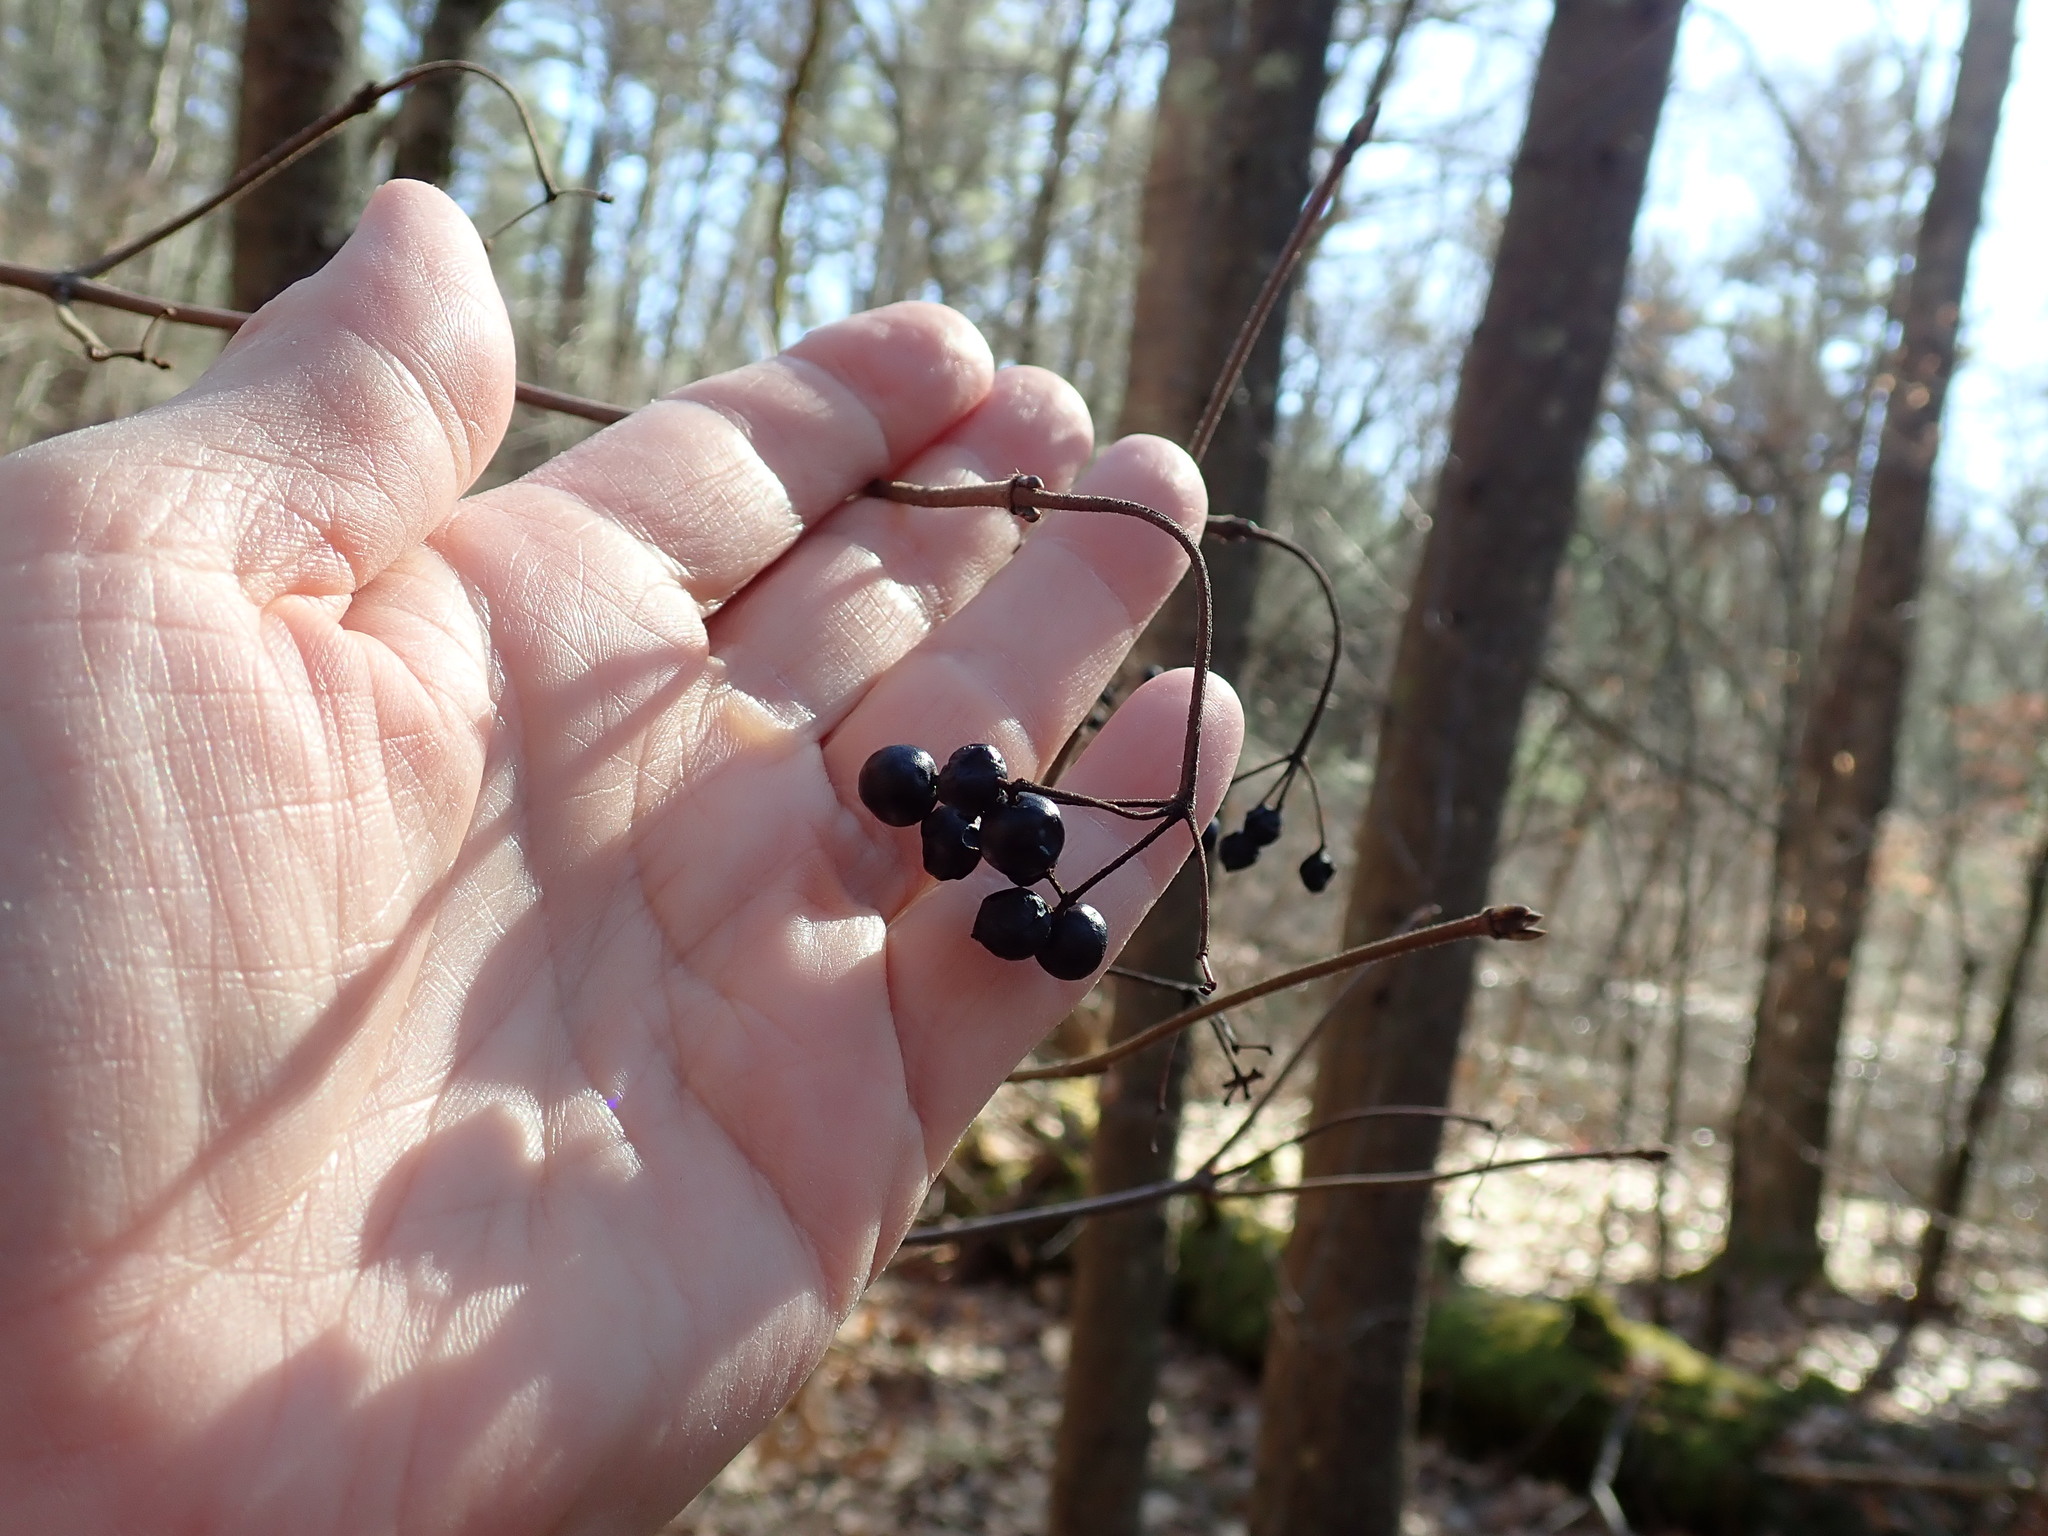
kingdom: Plantae
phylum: Tracheophyta
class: Magnoliopsida
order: Dipsacales
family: Viburnaceae
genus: Viburnum
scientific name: Viburnum acerifolium
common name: Dockmackie
